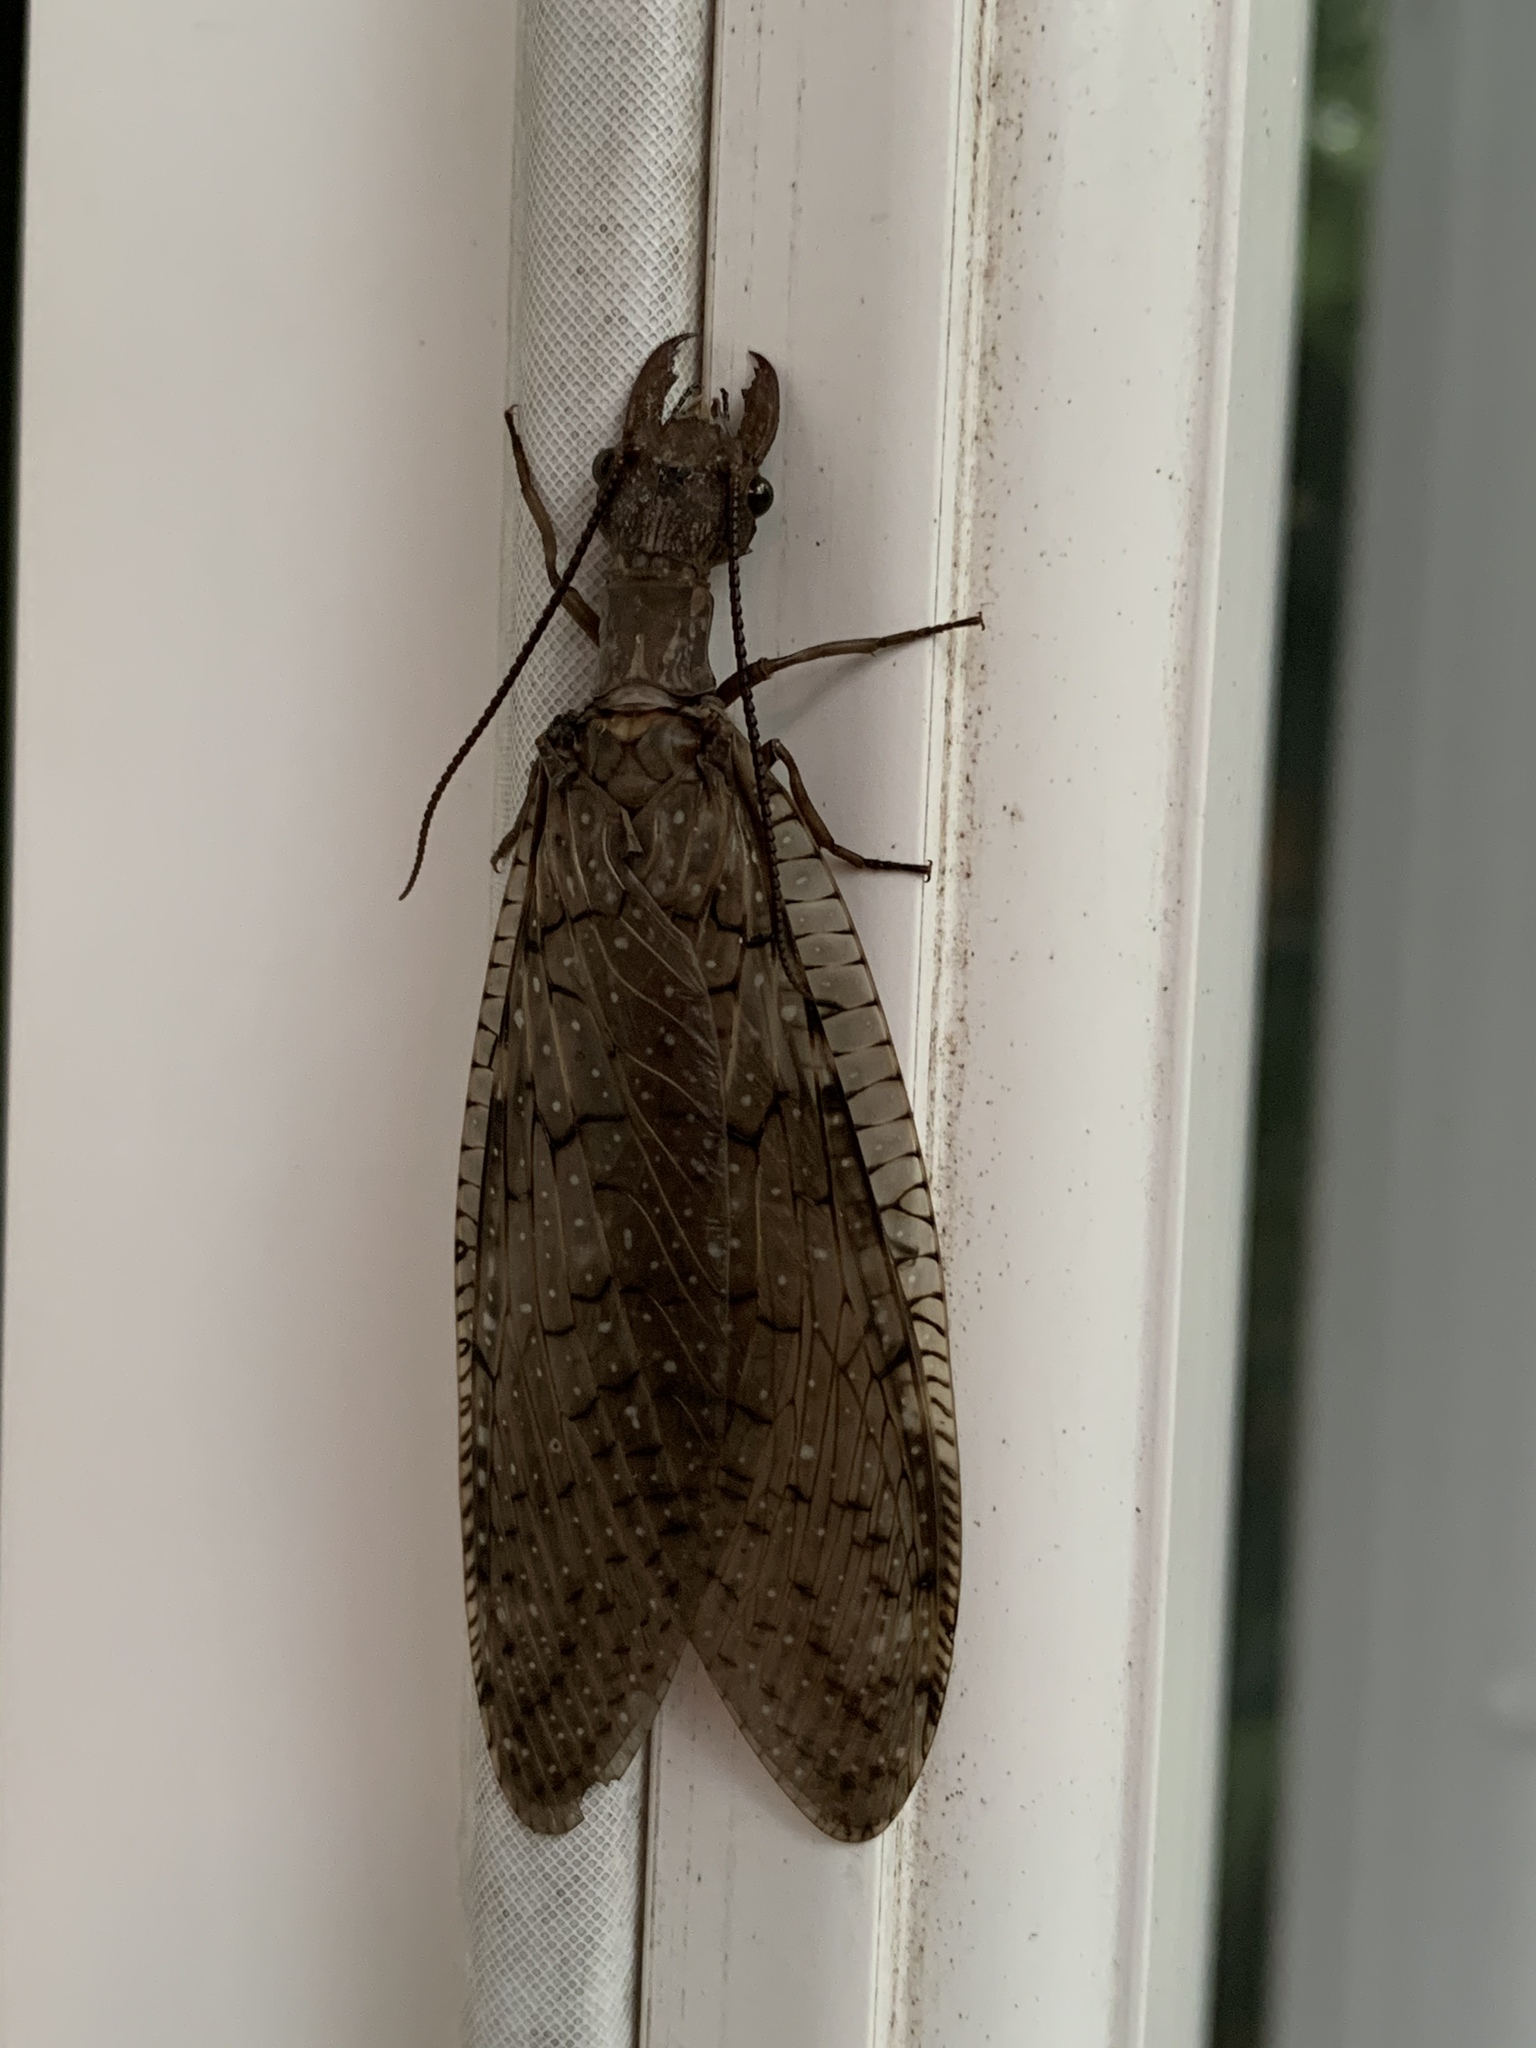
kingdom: Animalia
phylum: Arthropoda
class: Insecta
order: Megaloptera
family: Corydalidae
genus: Corydalus
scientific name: Corydalus cornutus
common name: Dobsonfly
